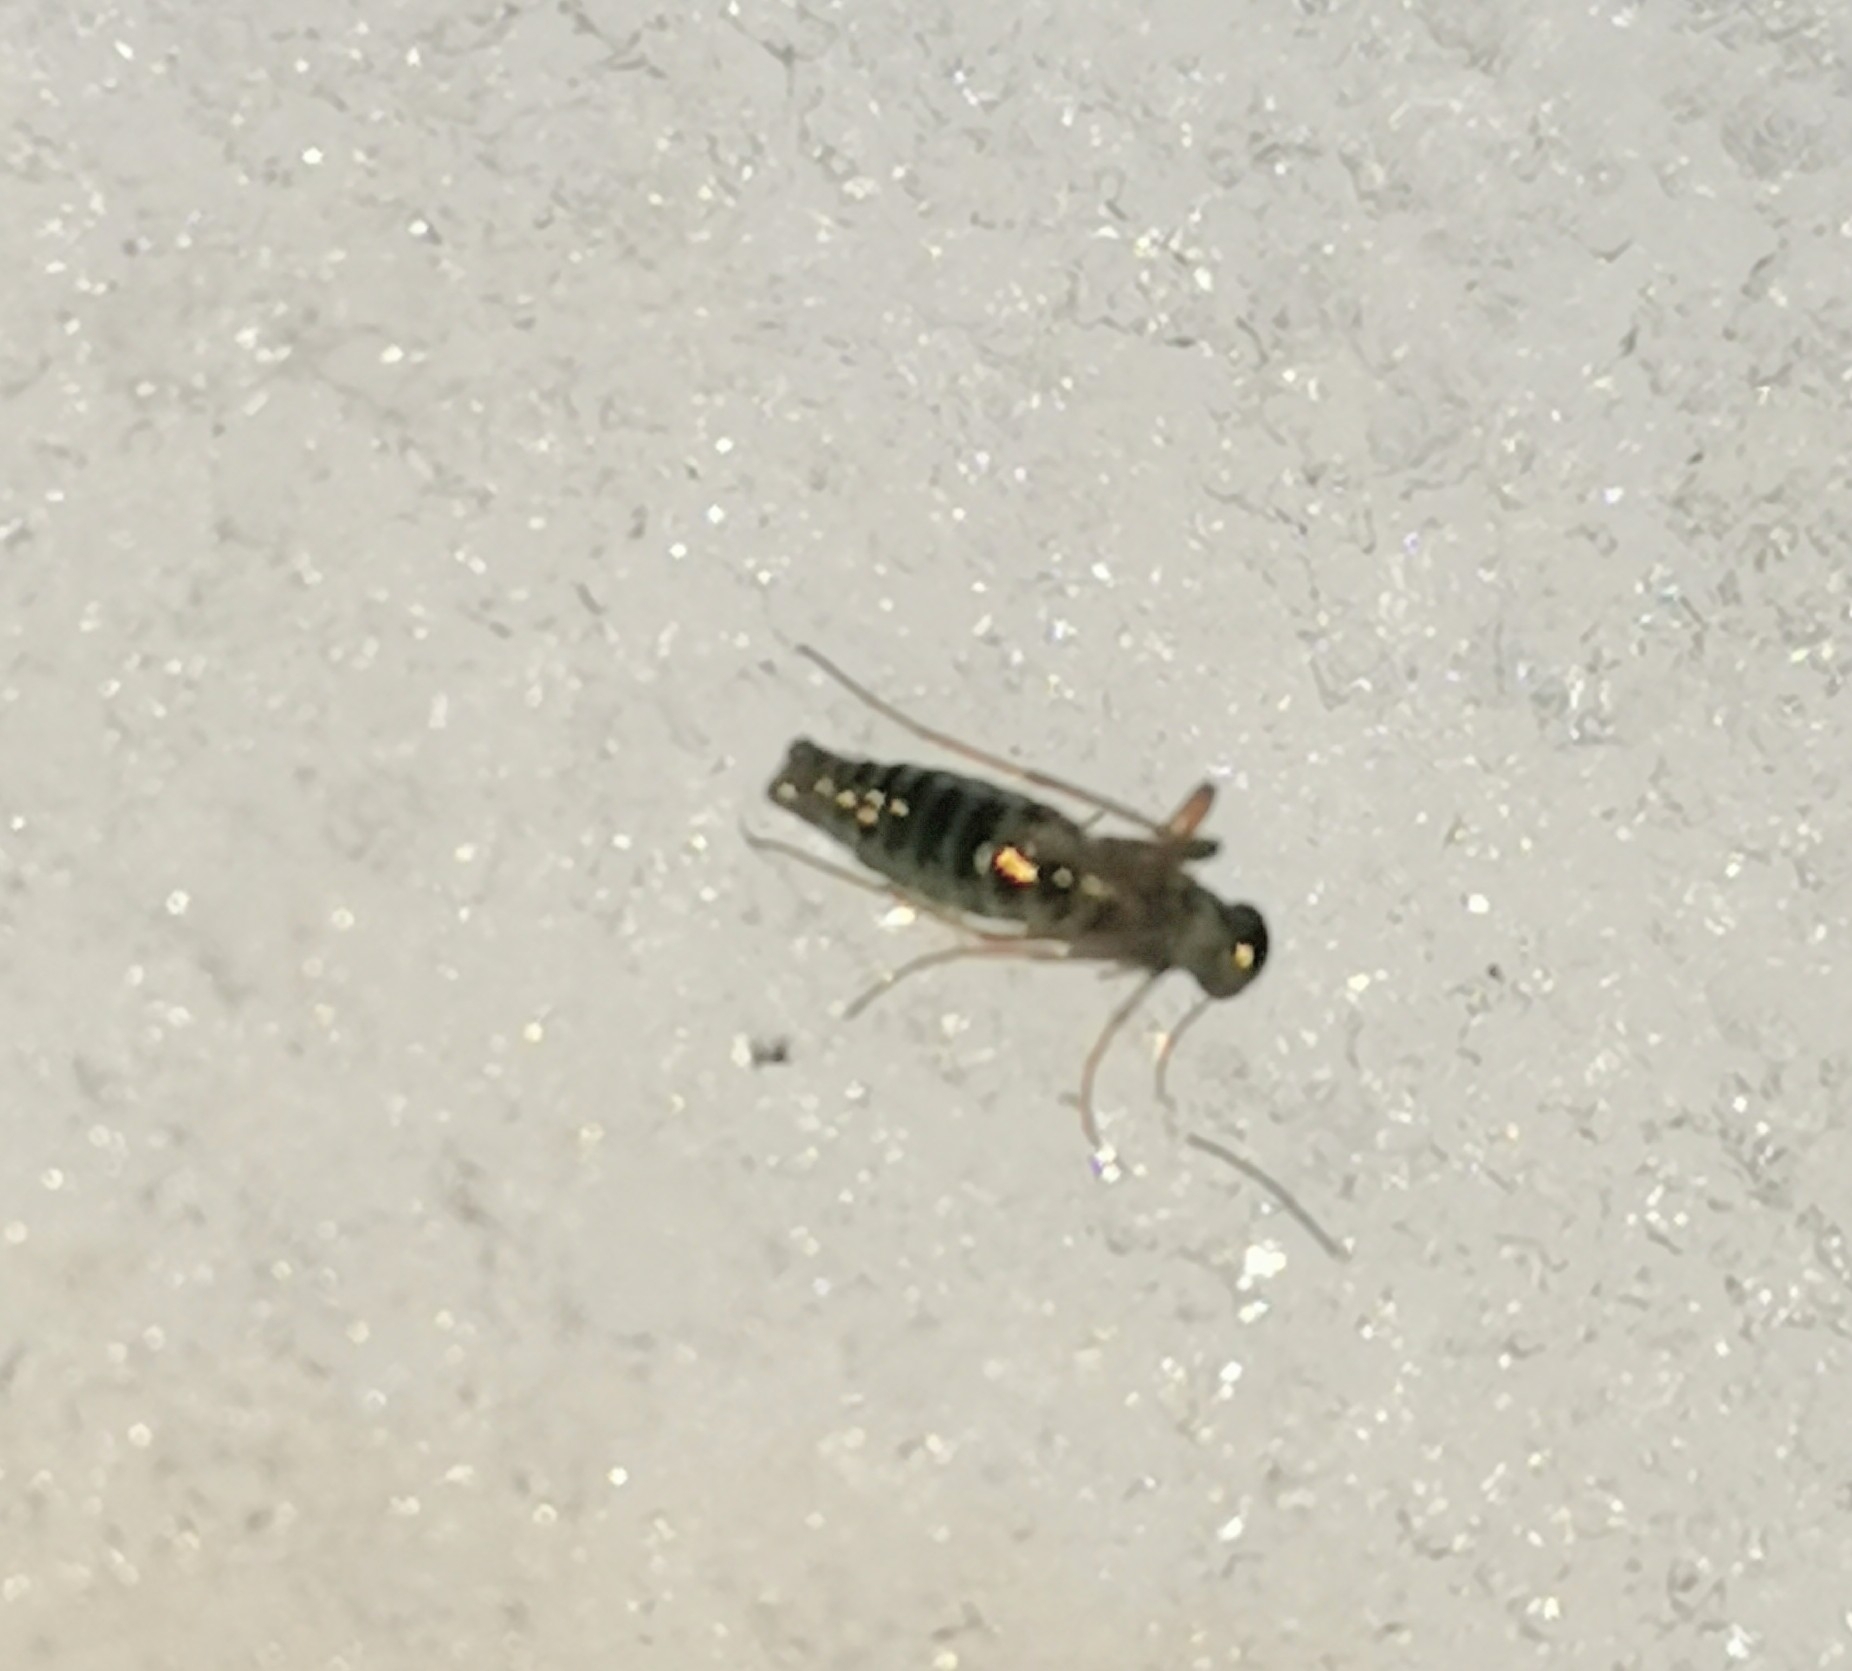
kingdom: Animalia
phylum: Arthropoda
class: Insecta
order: Mecoptera
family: Boreidae
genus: Boreus
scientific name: Boreus westwoodi
